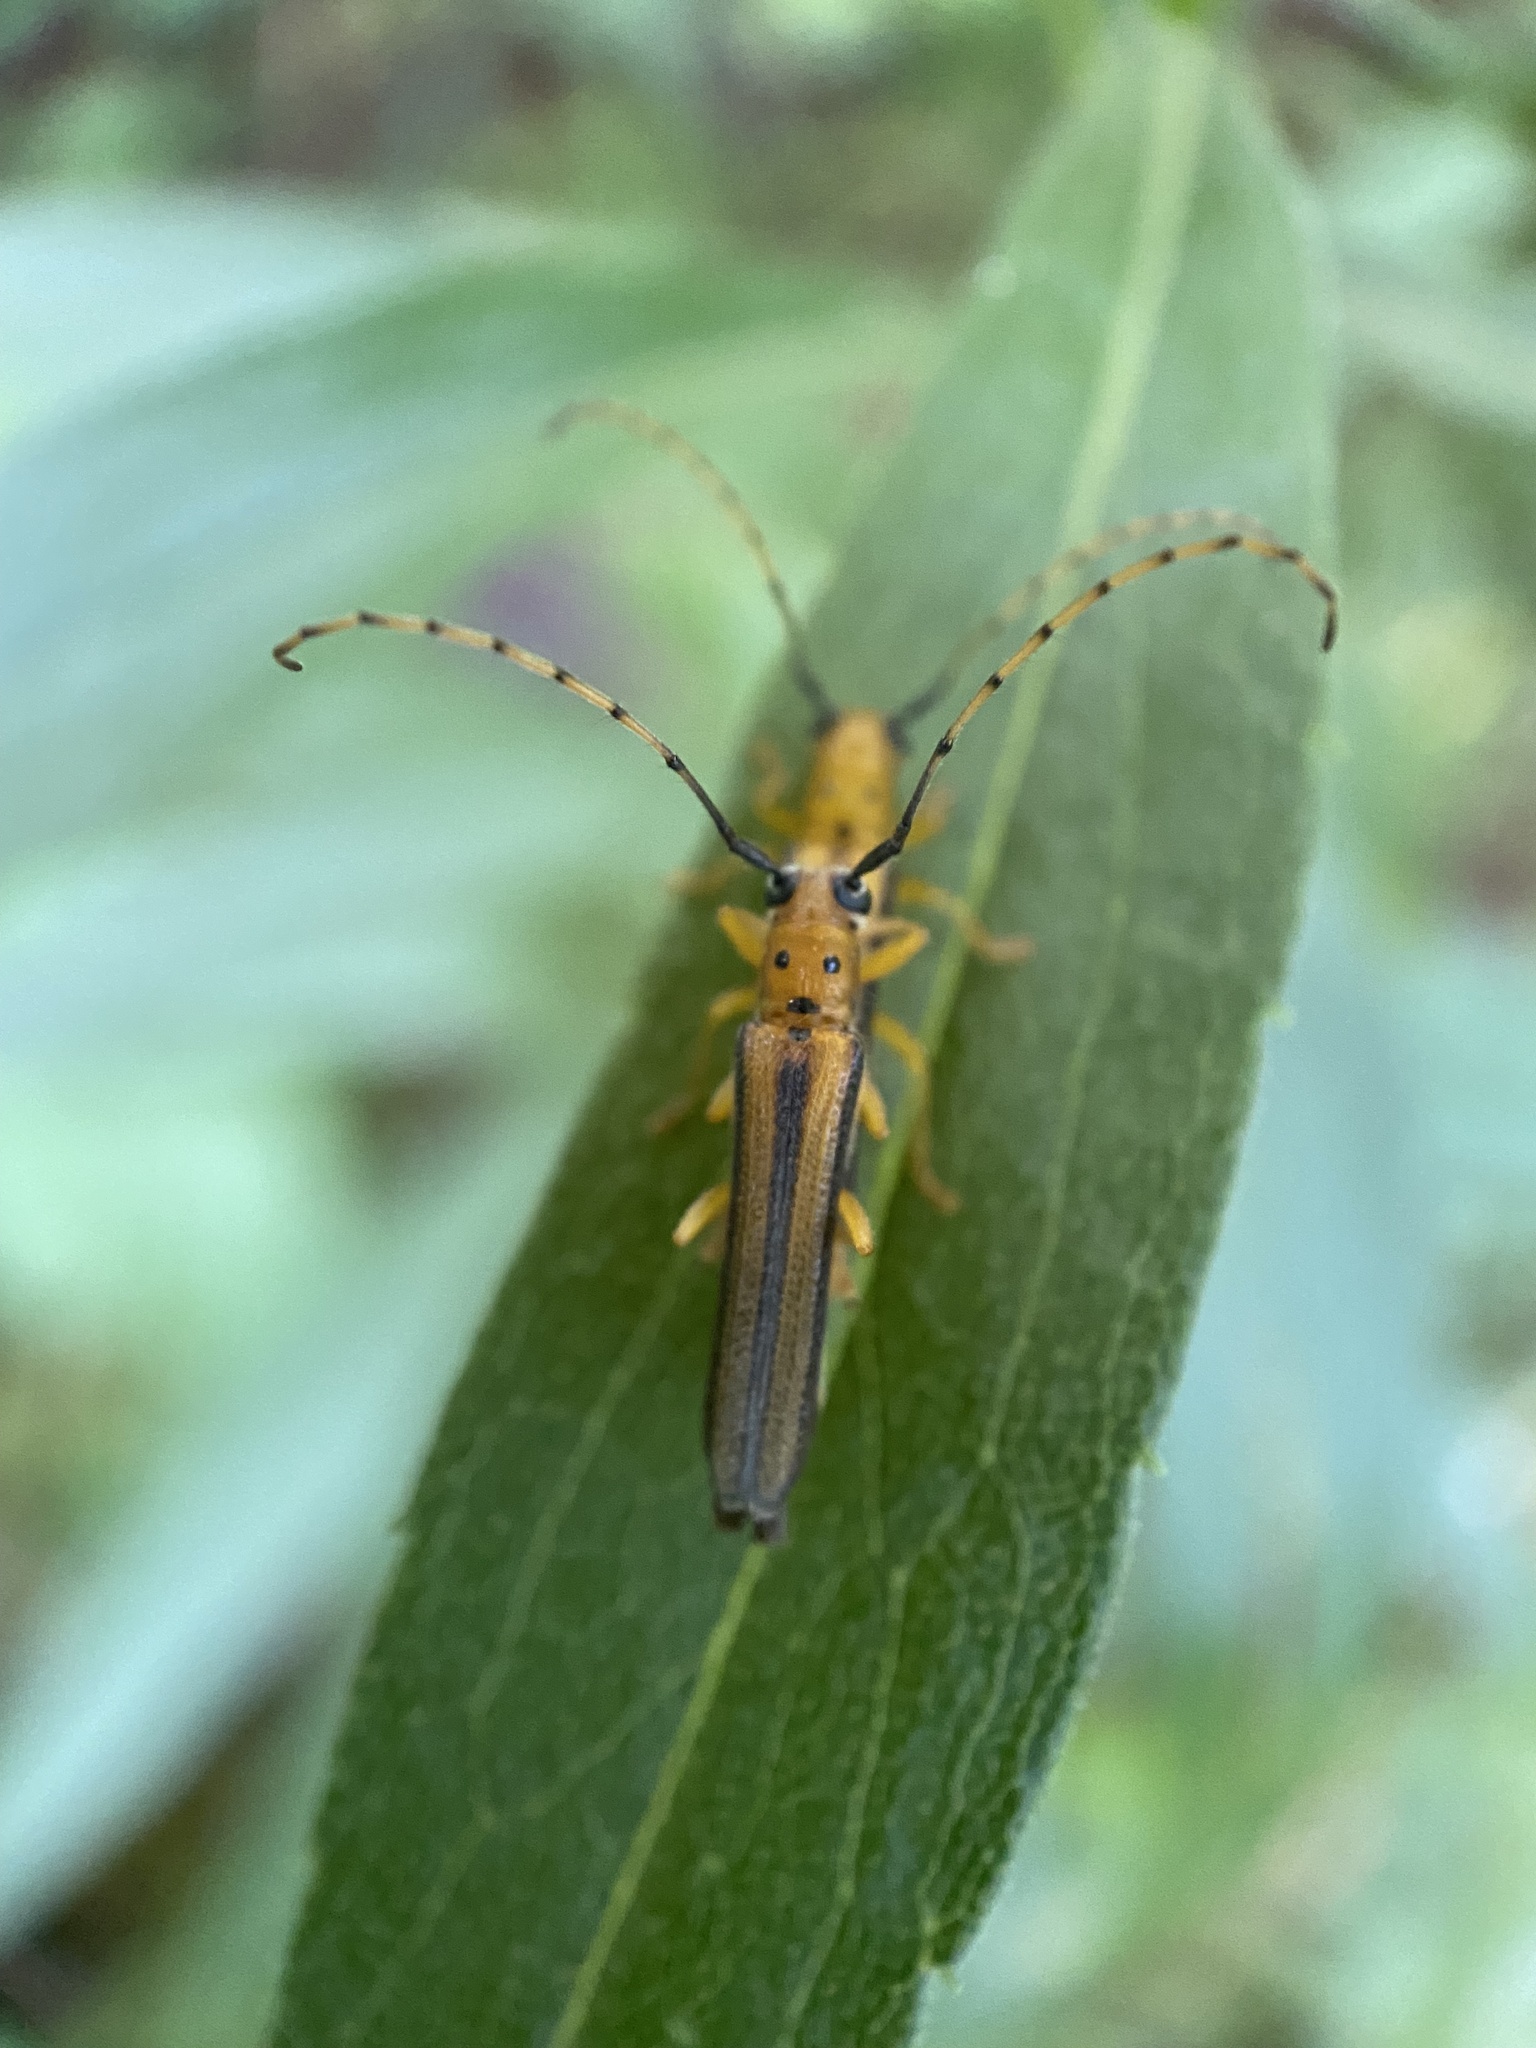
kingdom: Animalia
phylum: Arthropoda
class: Insecta
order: Coleoptera
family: Cerambycidae
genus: Oberea
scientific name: Oberea tripunctata
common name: Dogwood twig borer
